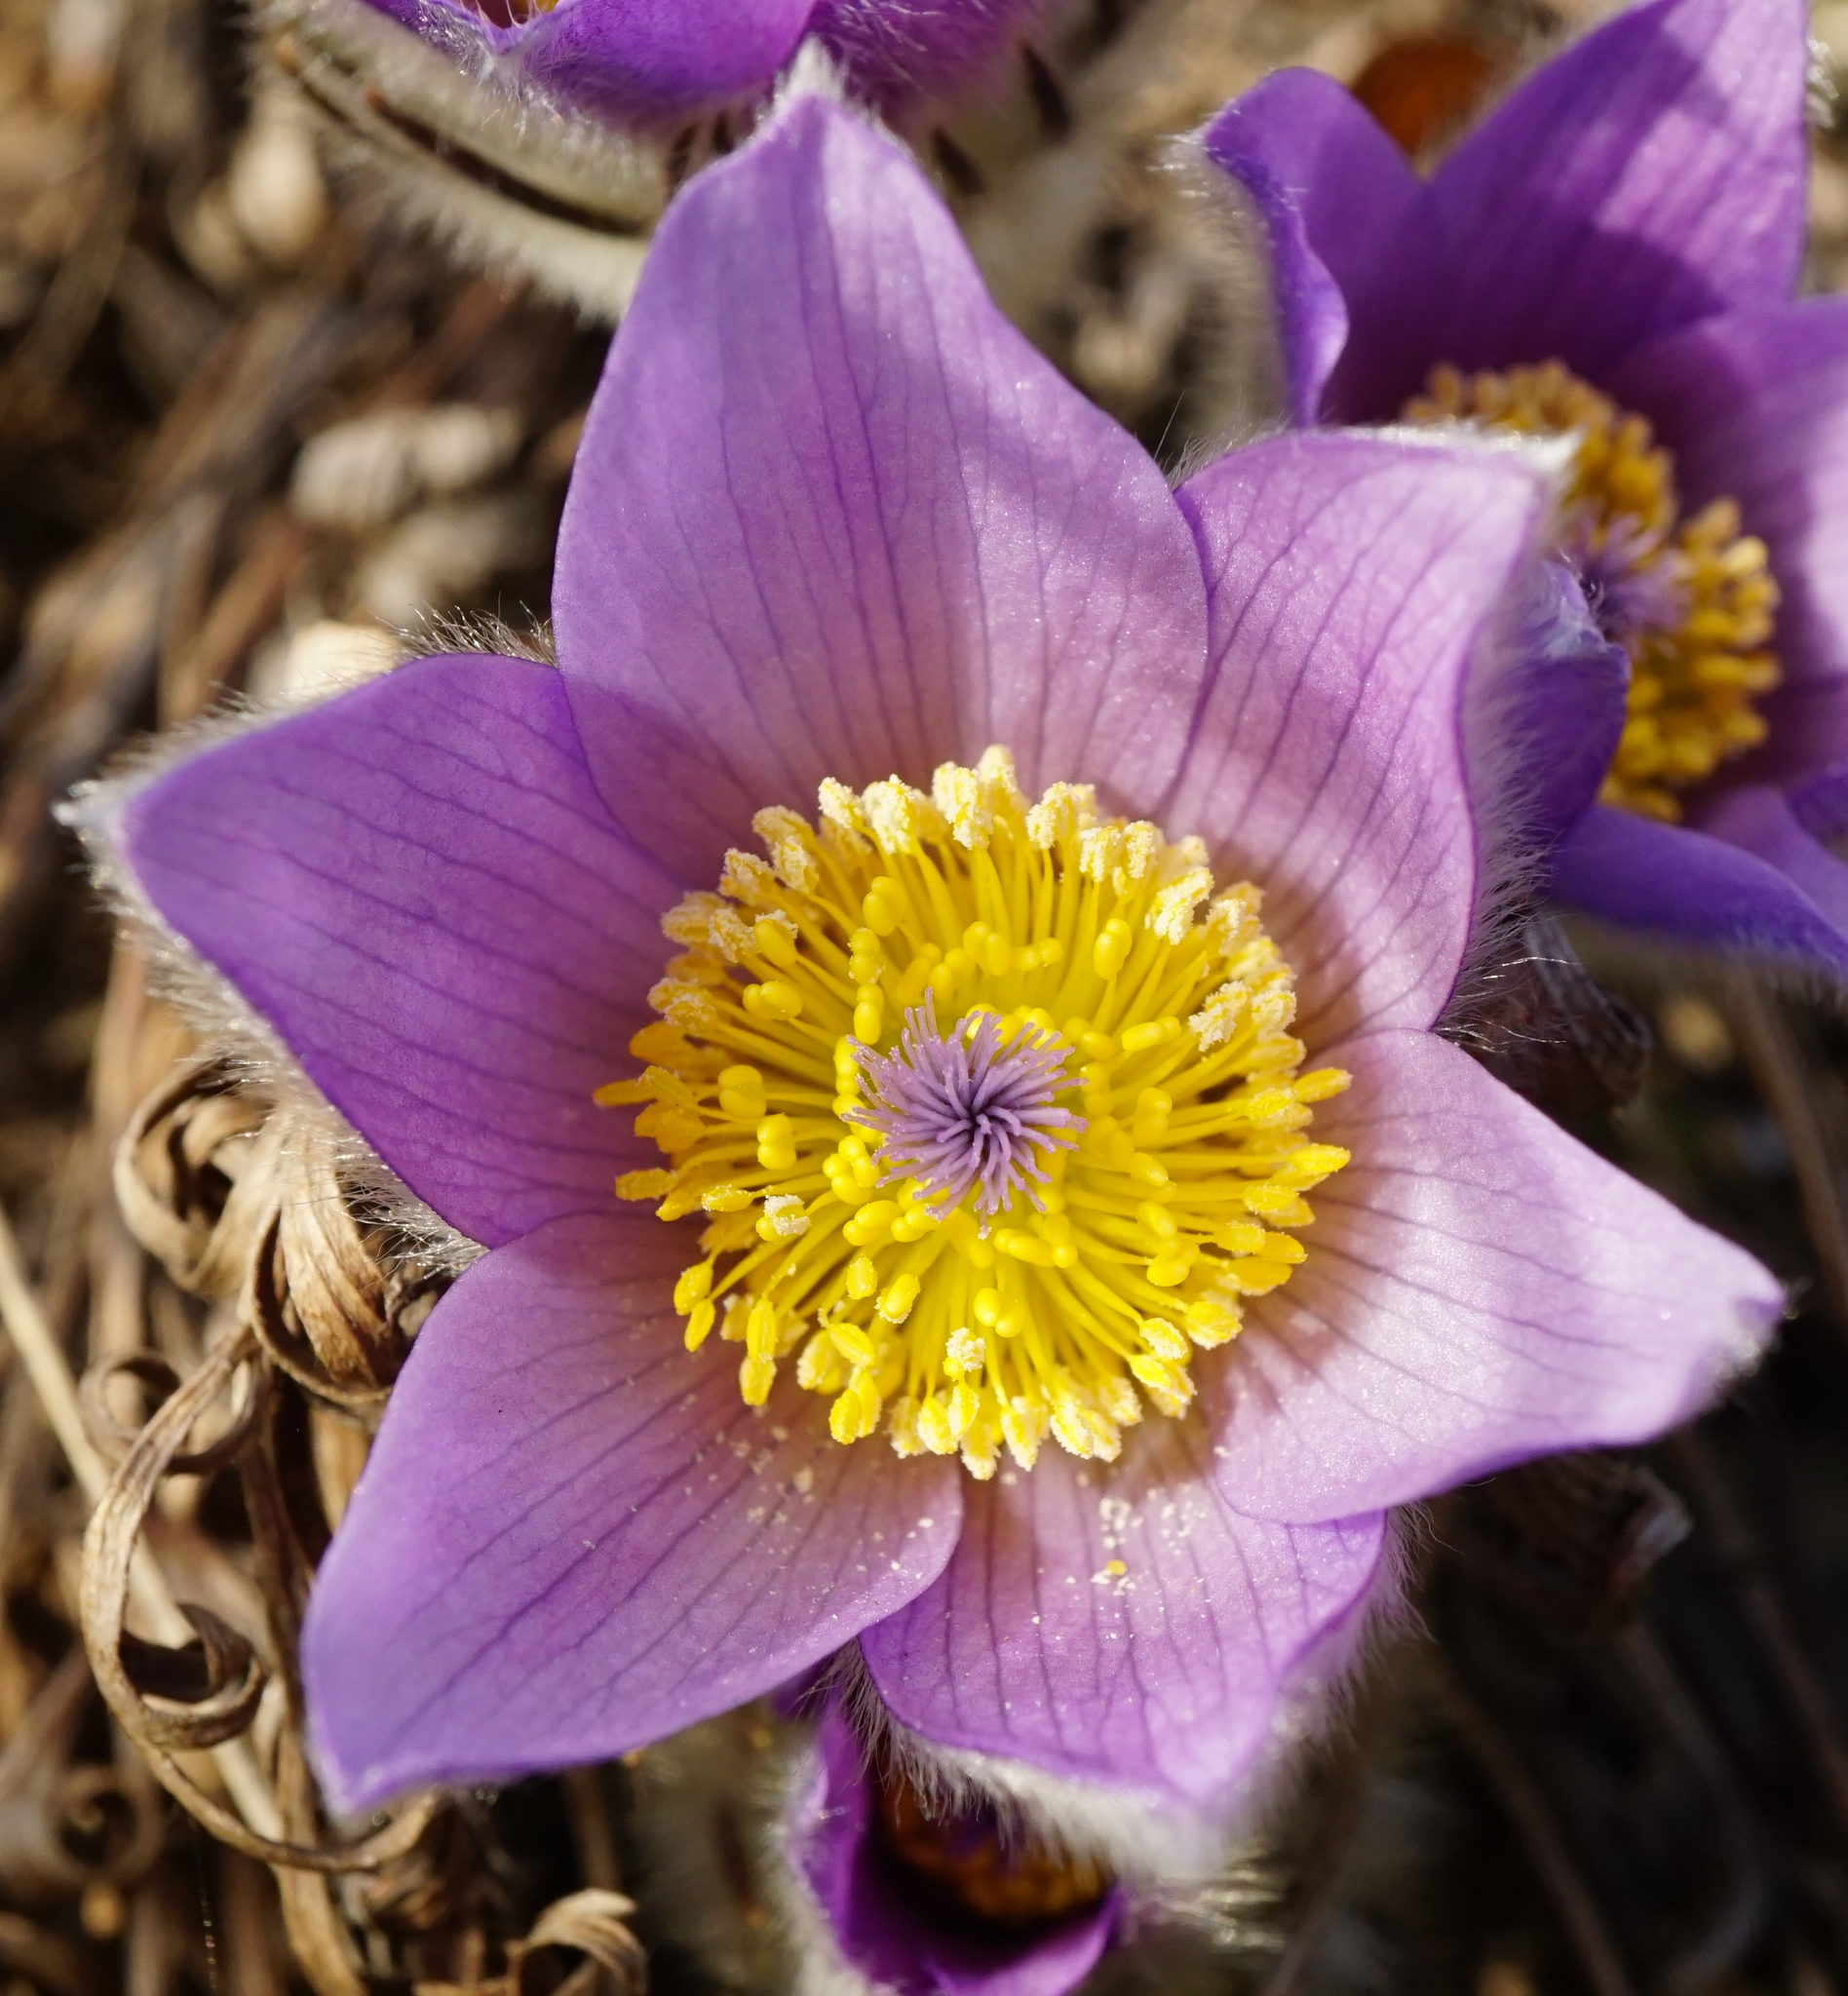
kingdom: Plantae
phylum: Tracheophyta
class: Magnoliopsida
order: Ranunculales
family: Ranunculaceae
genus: Pulsatilla
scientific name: Pulsatilla grandis
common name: Greater pasque flower
